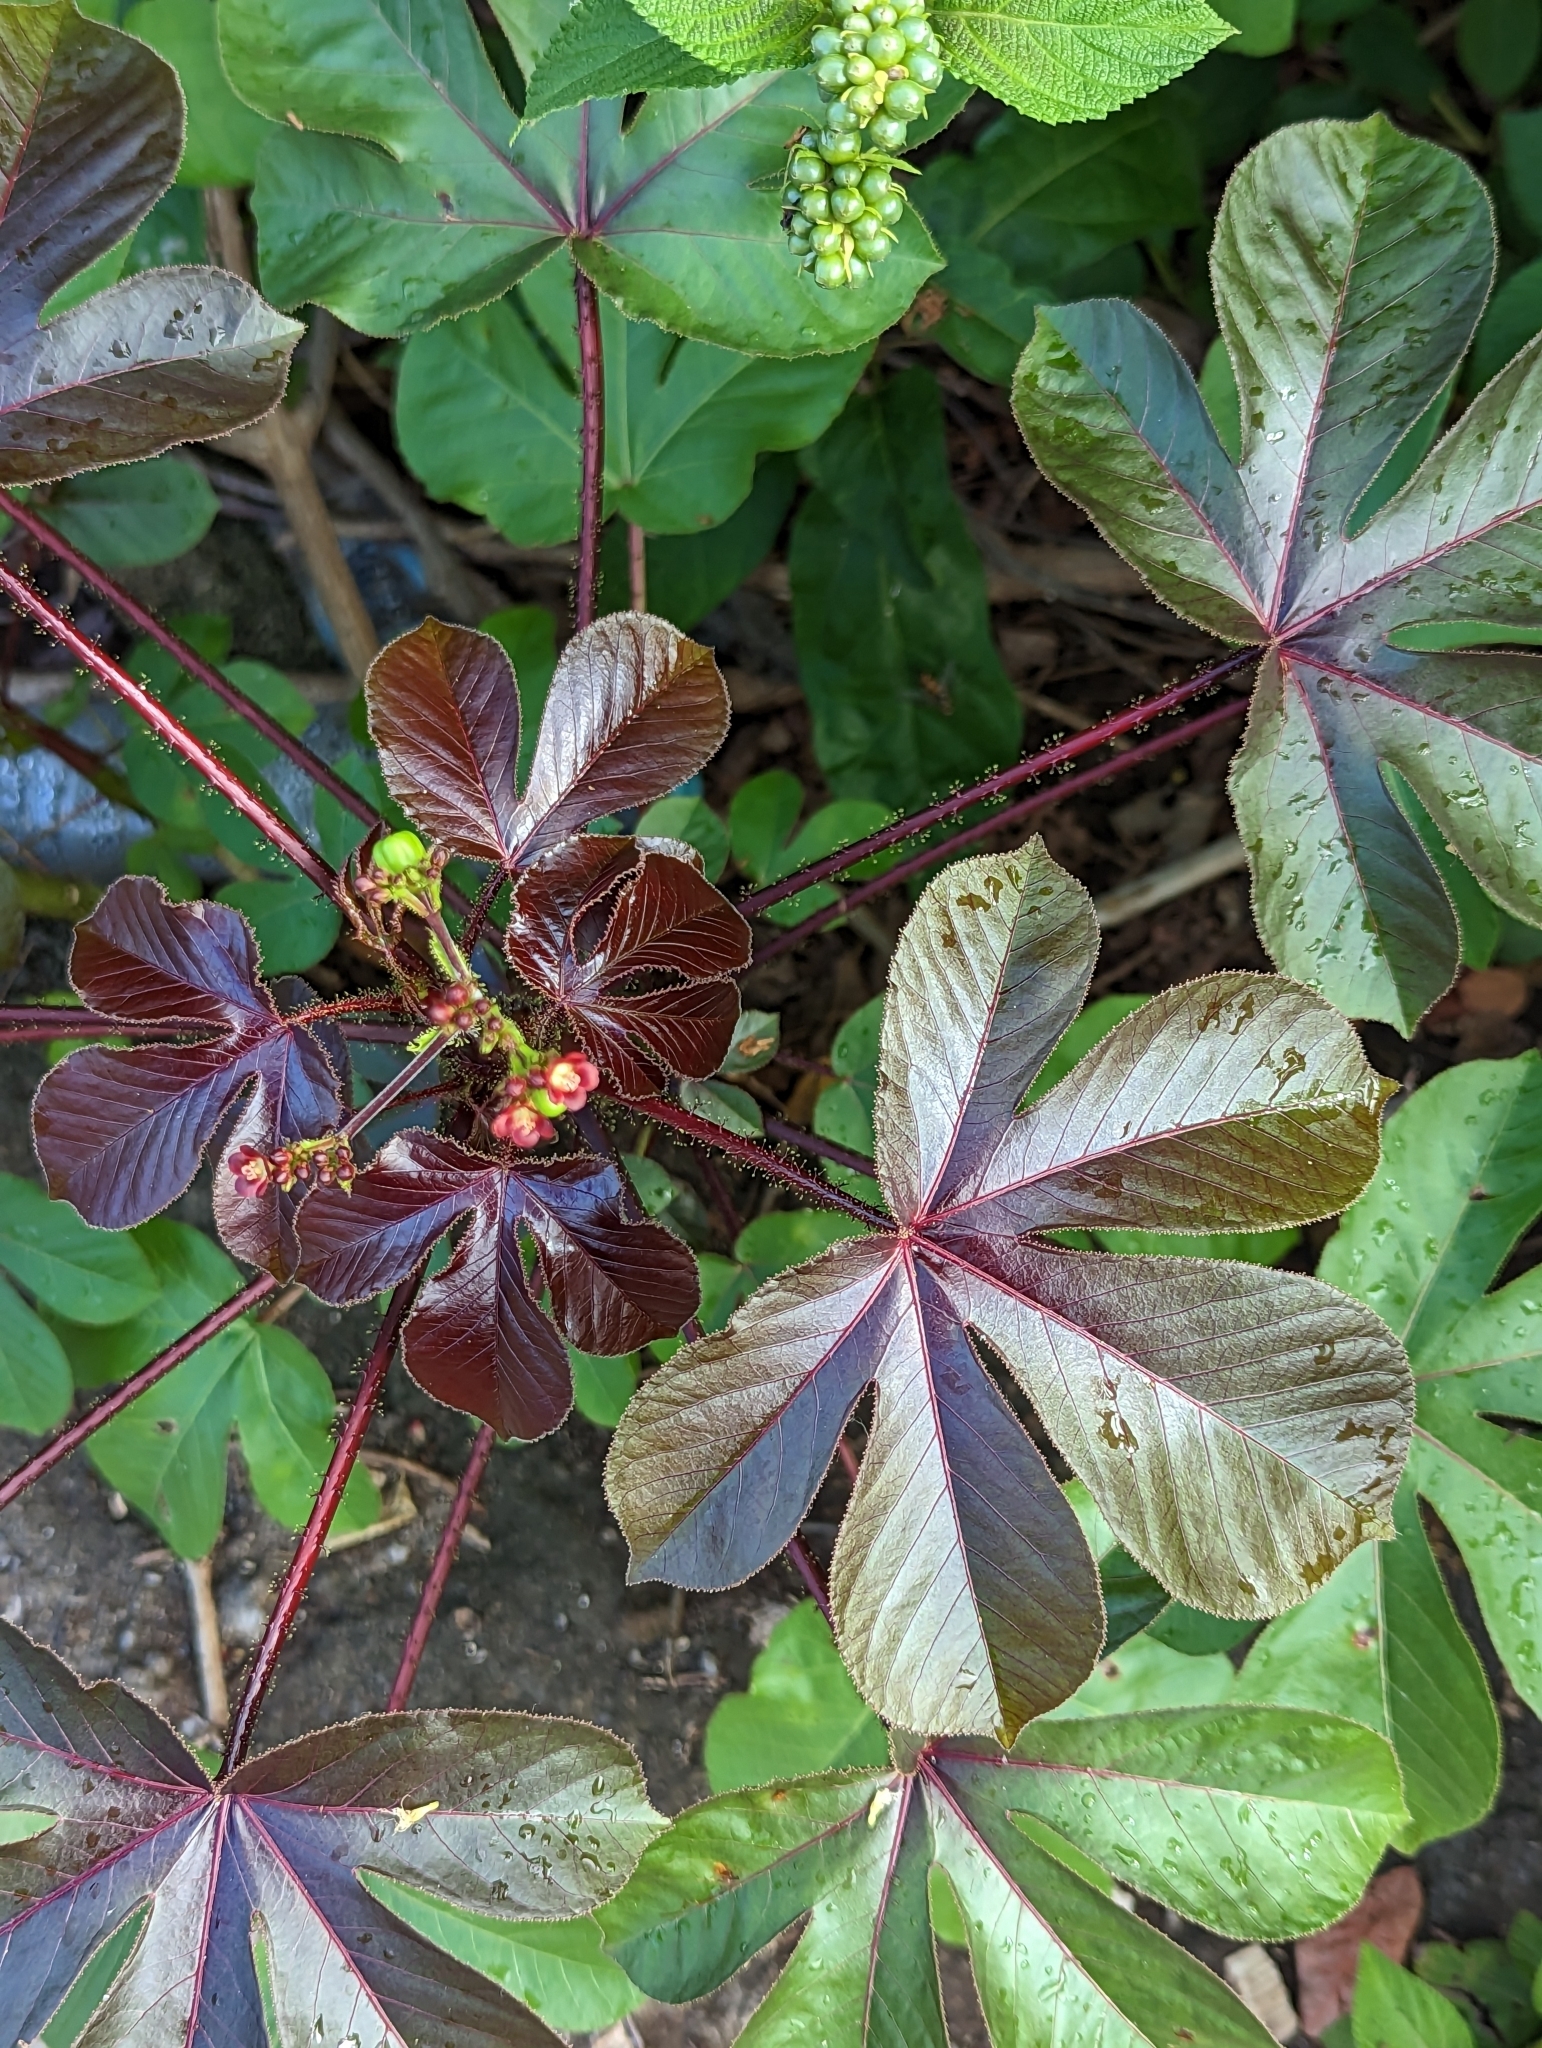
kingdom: Plantae
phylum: Tracheophyta
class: Magnoliopsida
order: Malpighiales
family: Euphorbiaceae
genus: Jatropha
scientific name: Jatropha gossypiifolia
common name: Bellyache bush
